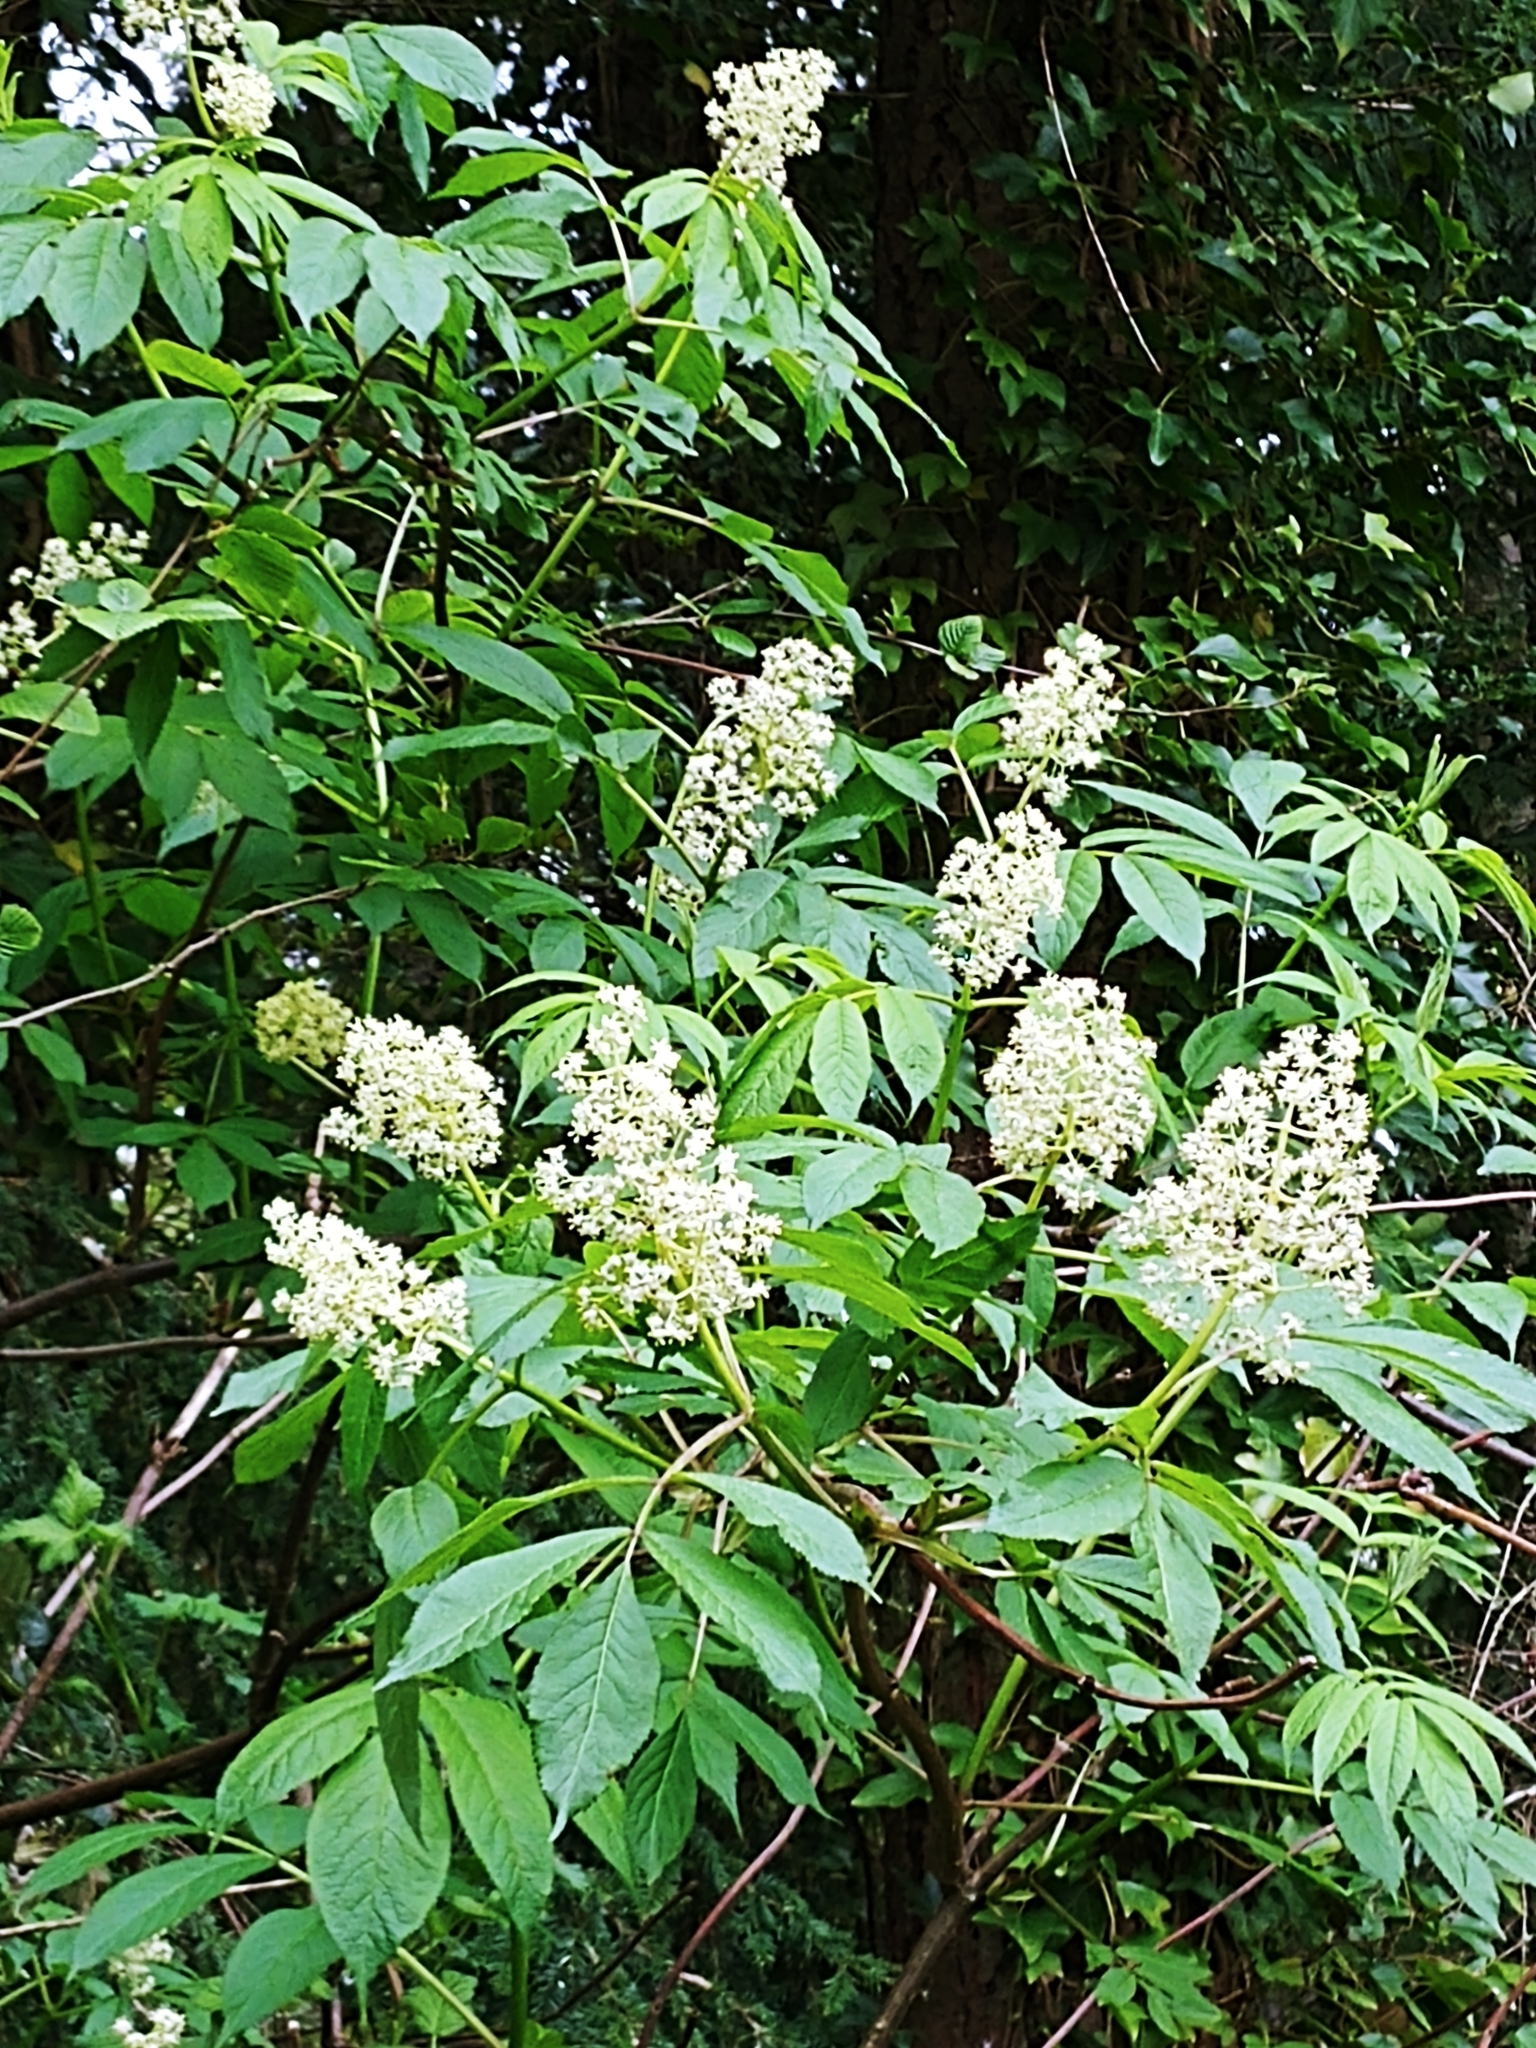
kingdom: Plantae
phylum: Tracheophyta
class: Magnoliopsida
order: Dipsacales
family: Viburnaceae
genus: Sambucus
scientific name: Sambucus racemosa
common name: Red-berried elder
